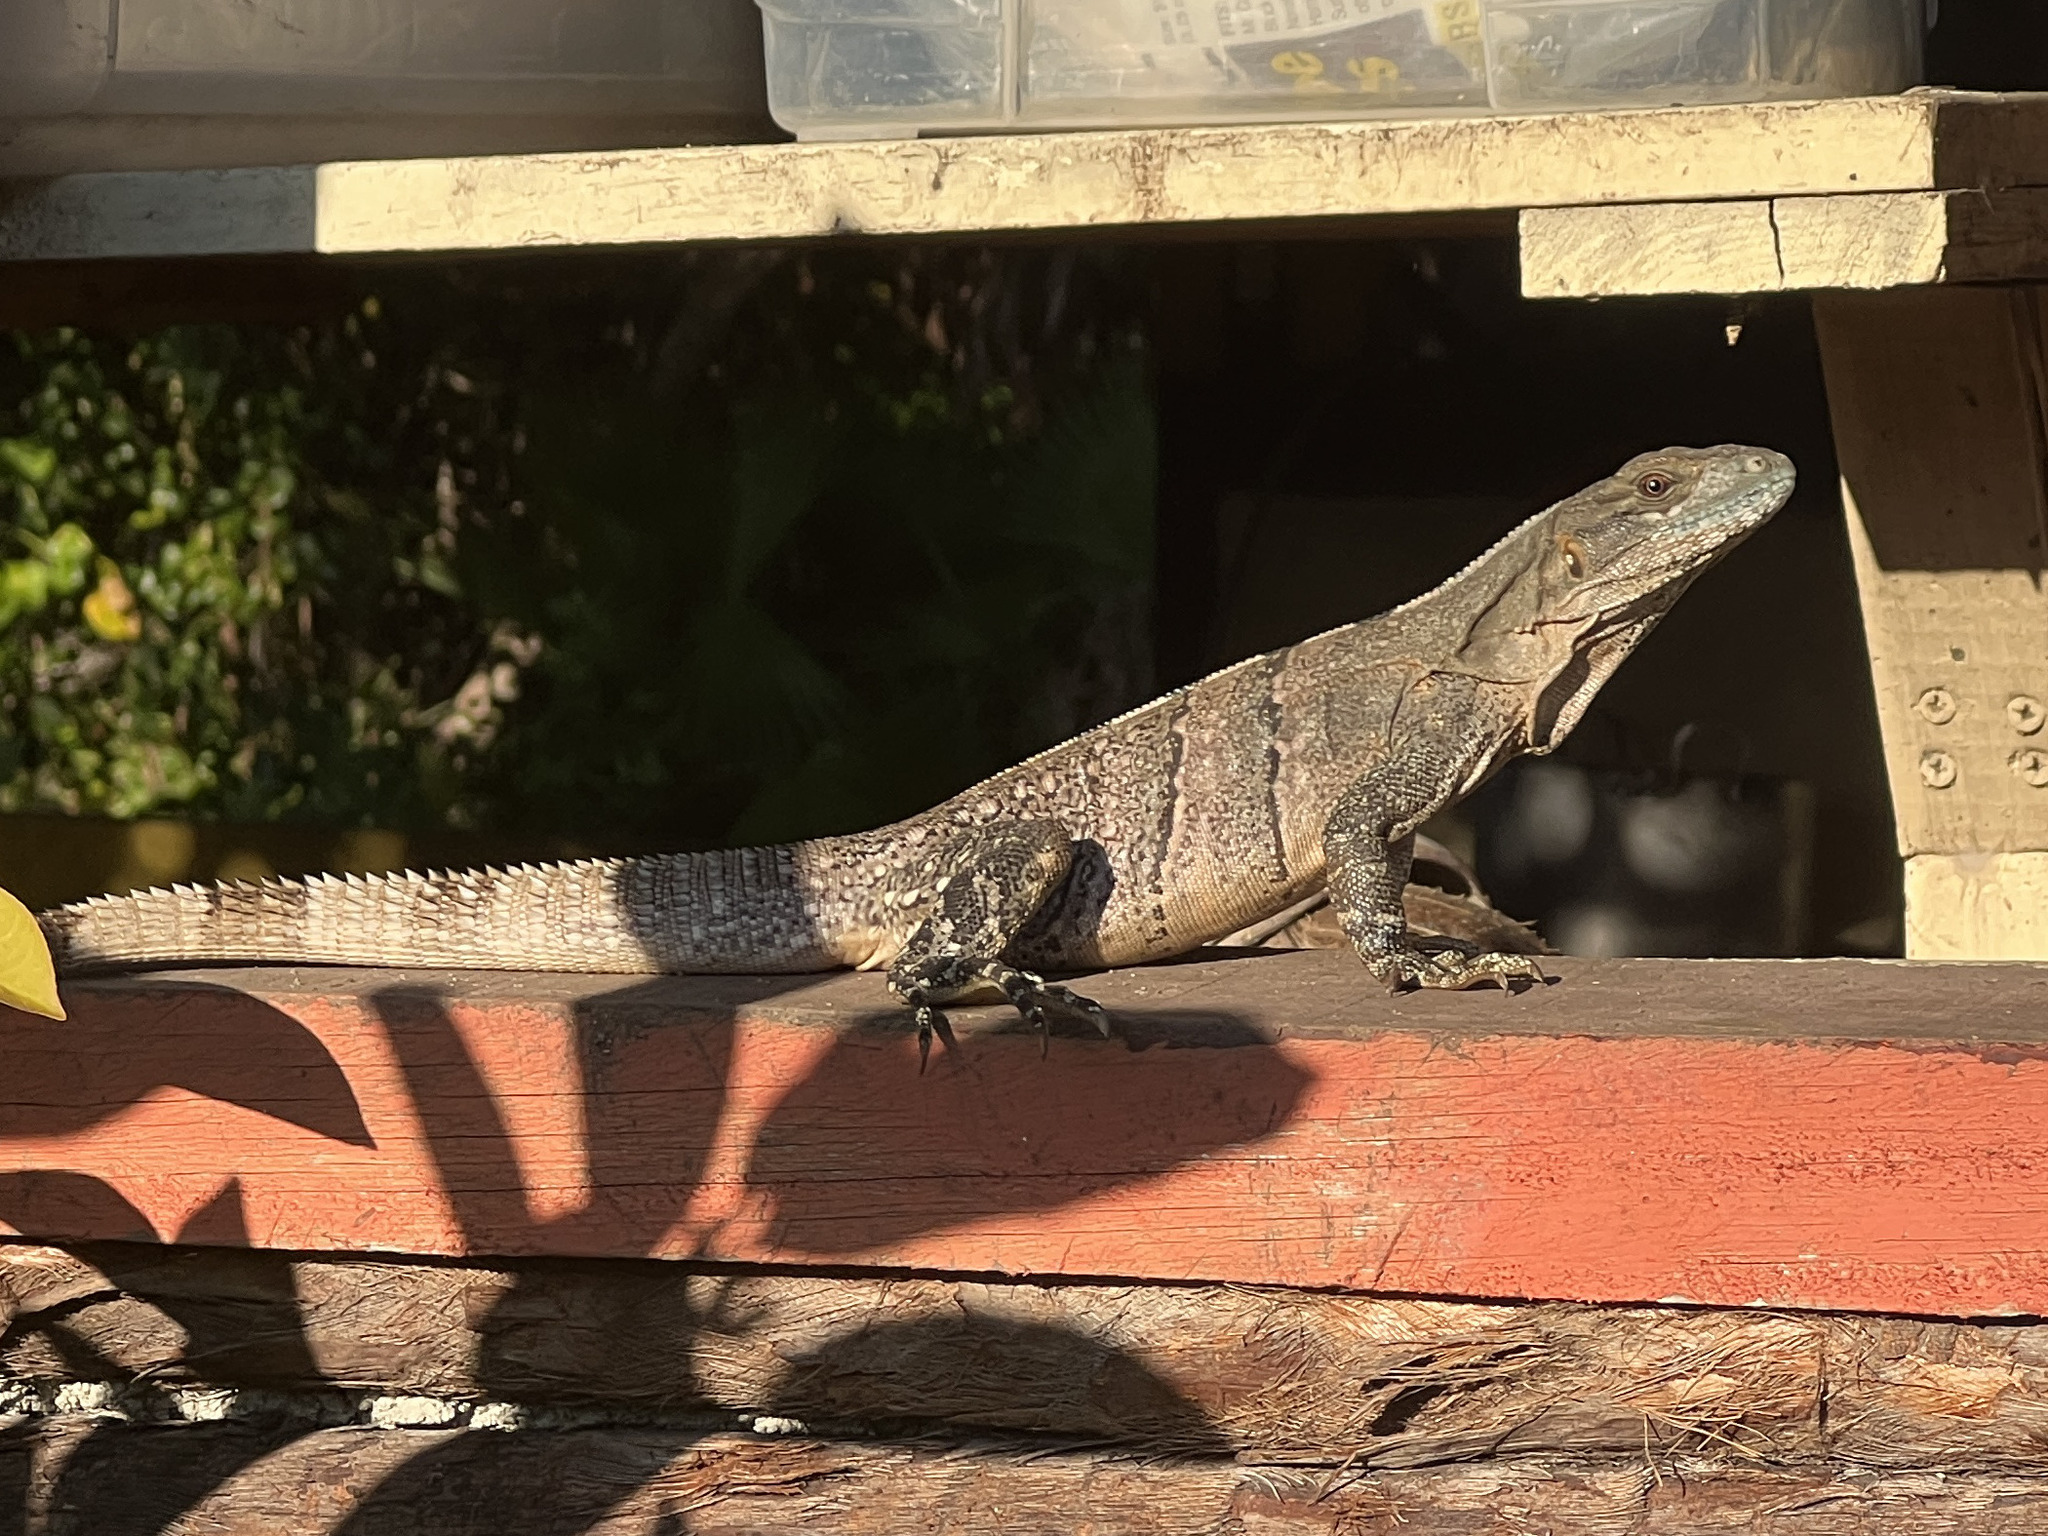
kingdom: Animalia
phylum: Chordata
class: Squamata
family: Iguanidae
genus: Ctenosaura
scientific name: Ctenosaura similis
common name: Black spiny-tailed iguana
